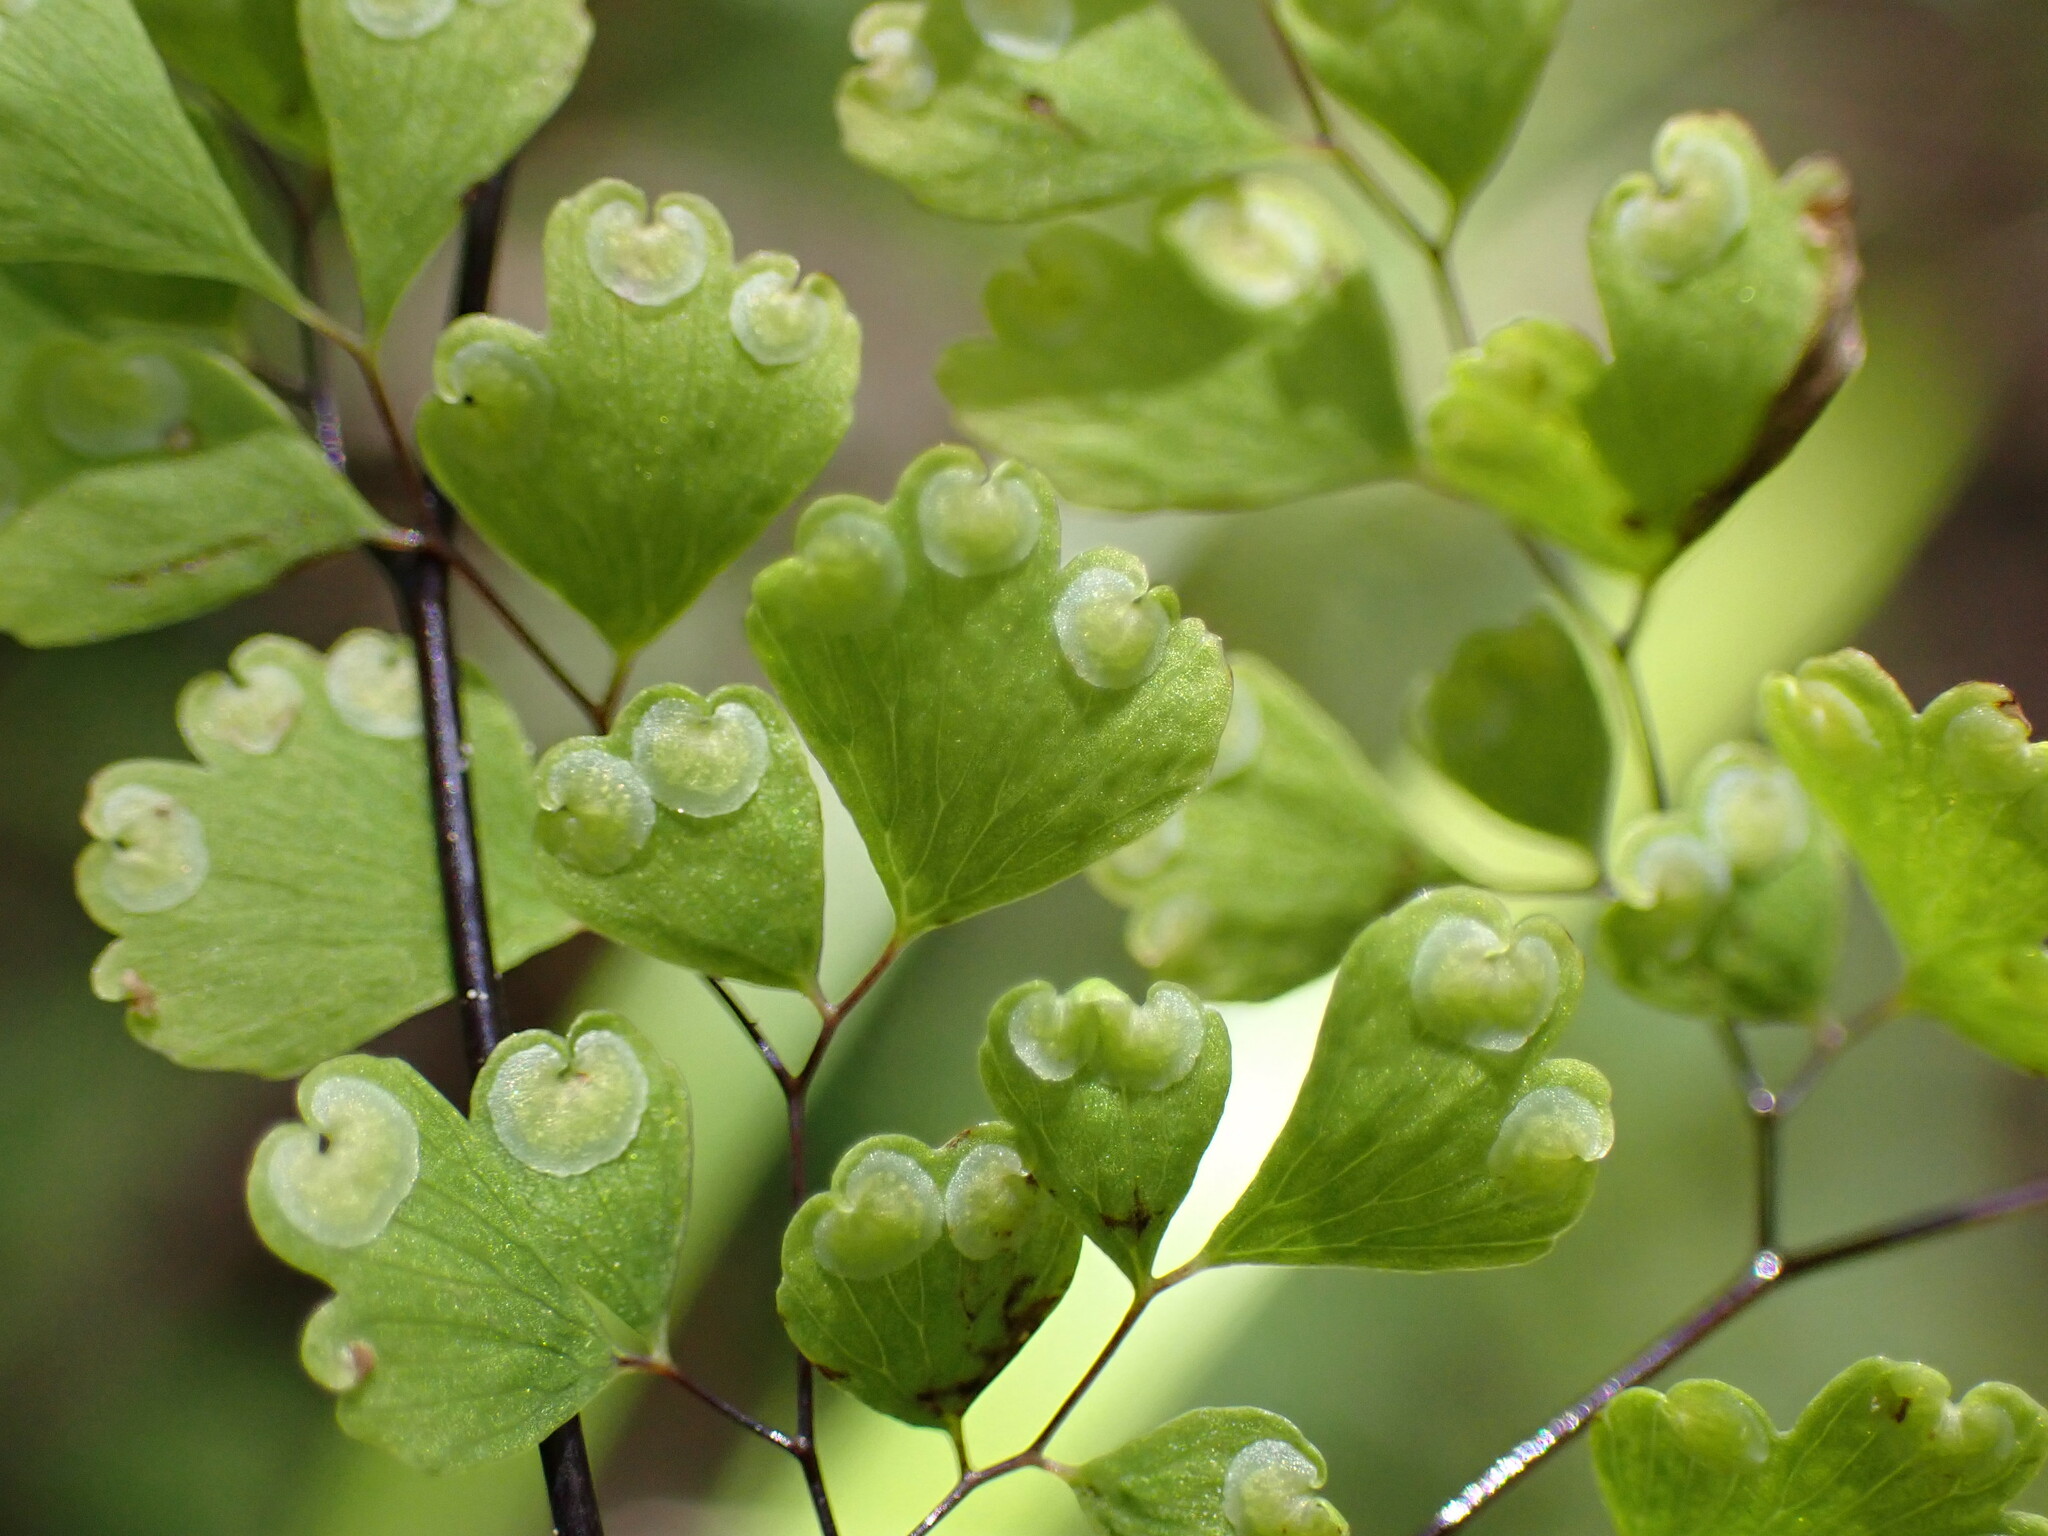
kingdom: Plantae
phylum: Tracheophyta
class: Polypodiopsida
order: Polypodiales
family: Pteridaceae
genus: Adiantum
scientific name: Adiantum raddianum
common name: Delta maidenhair fern
